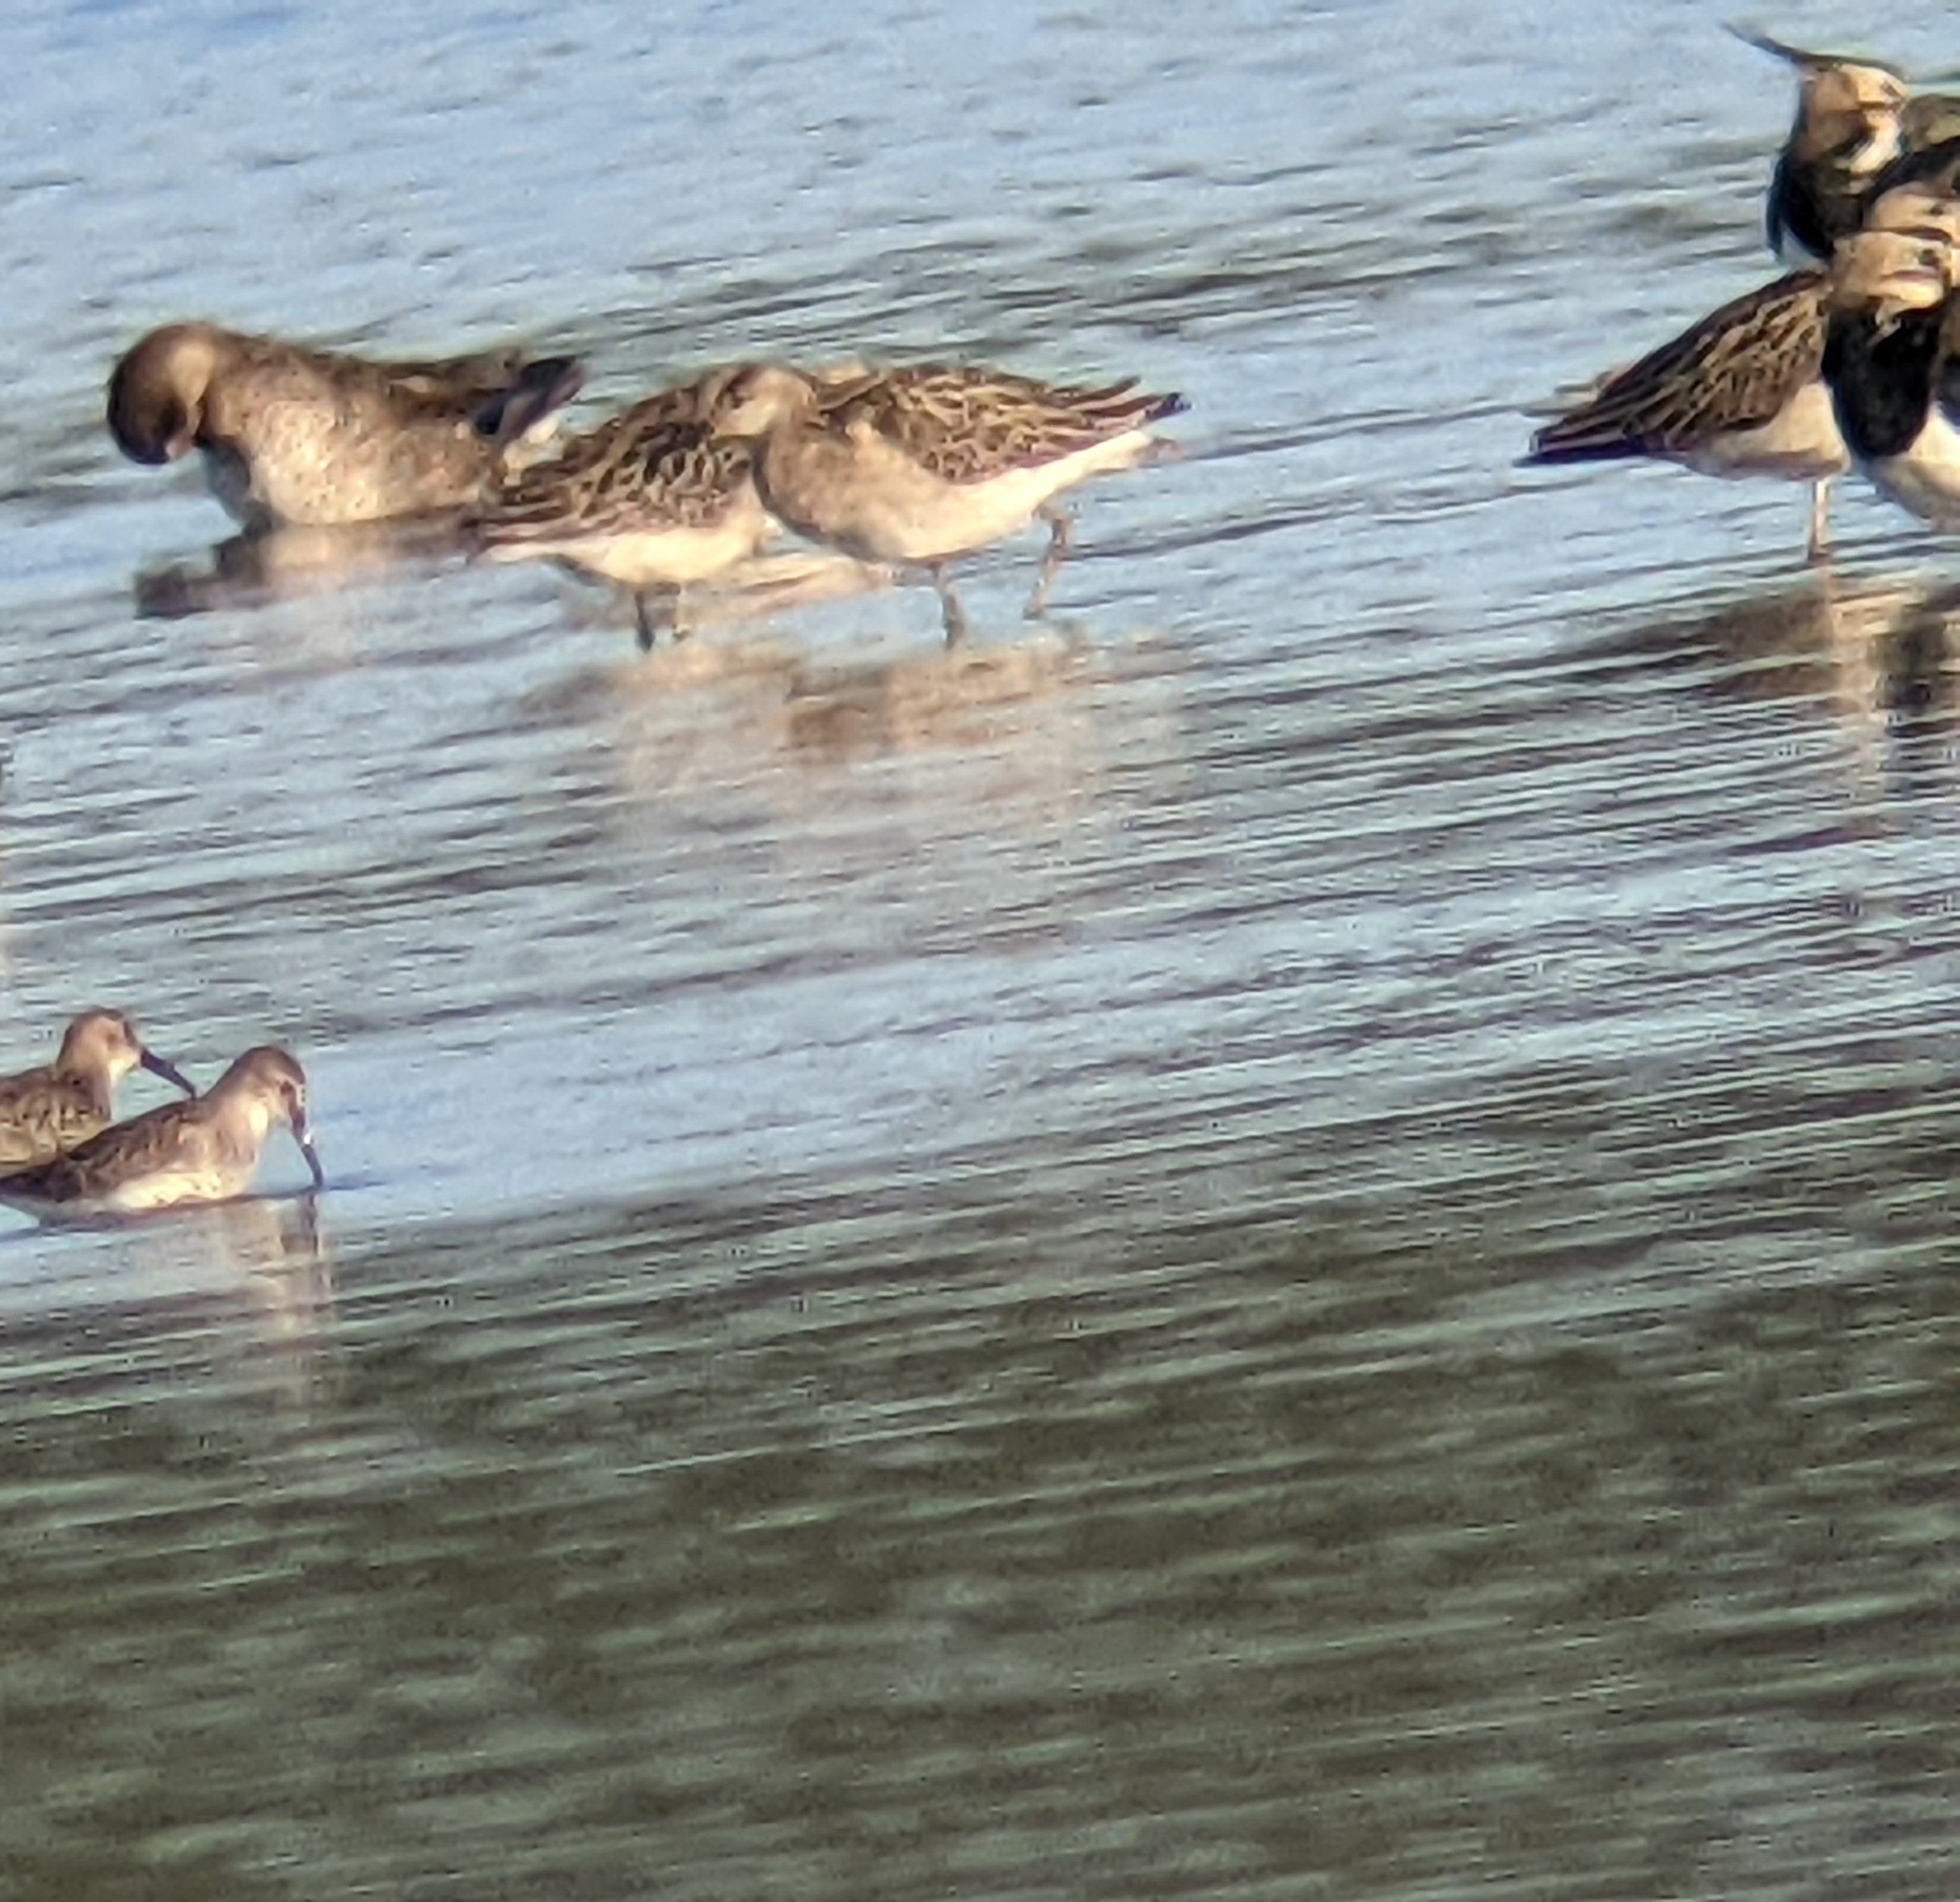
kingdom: Animalia
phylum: Chordata
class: Aves
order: Charadriiformes
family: Scolopacidae
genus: Calidris
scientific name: Calidris pugnax
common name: Ruff
